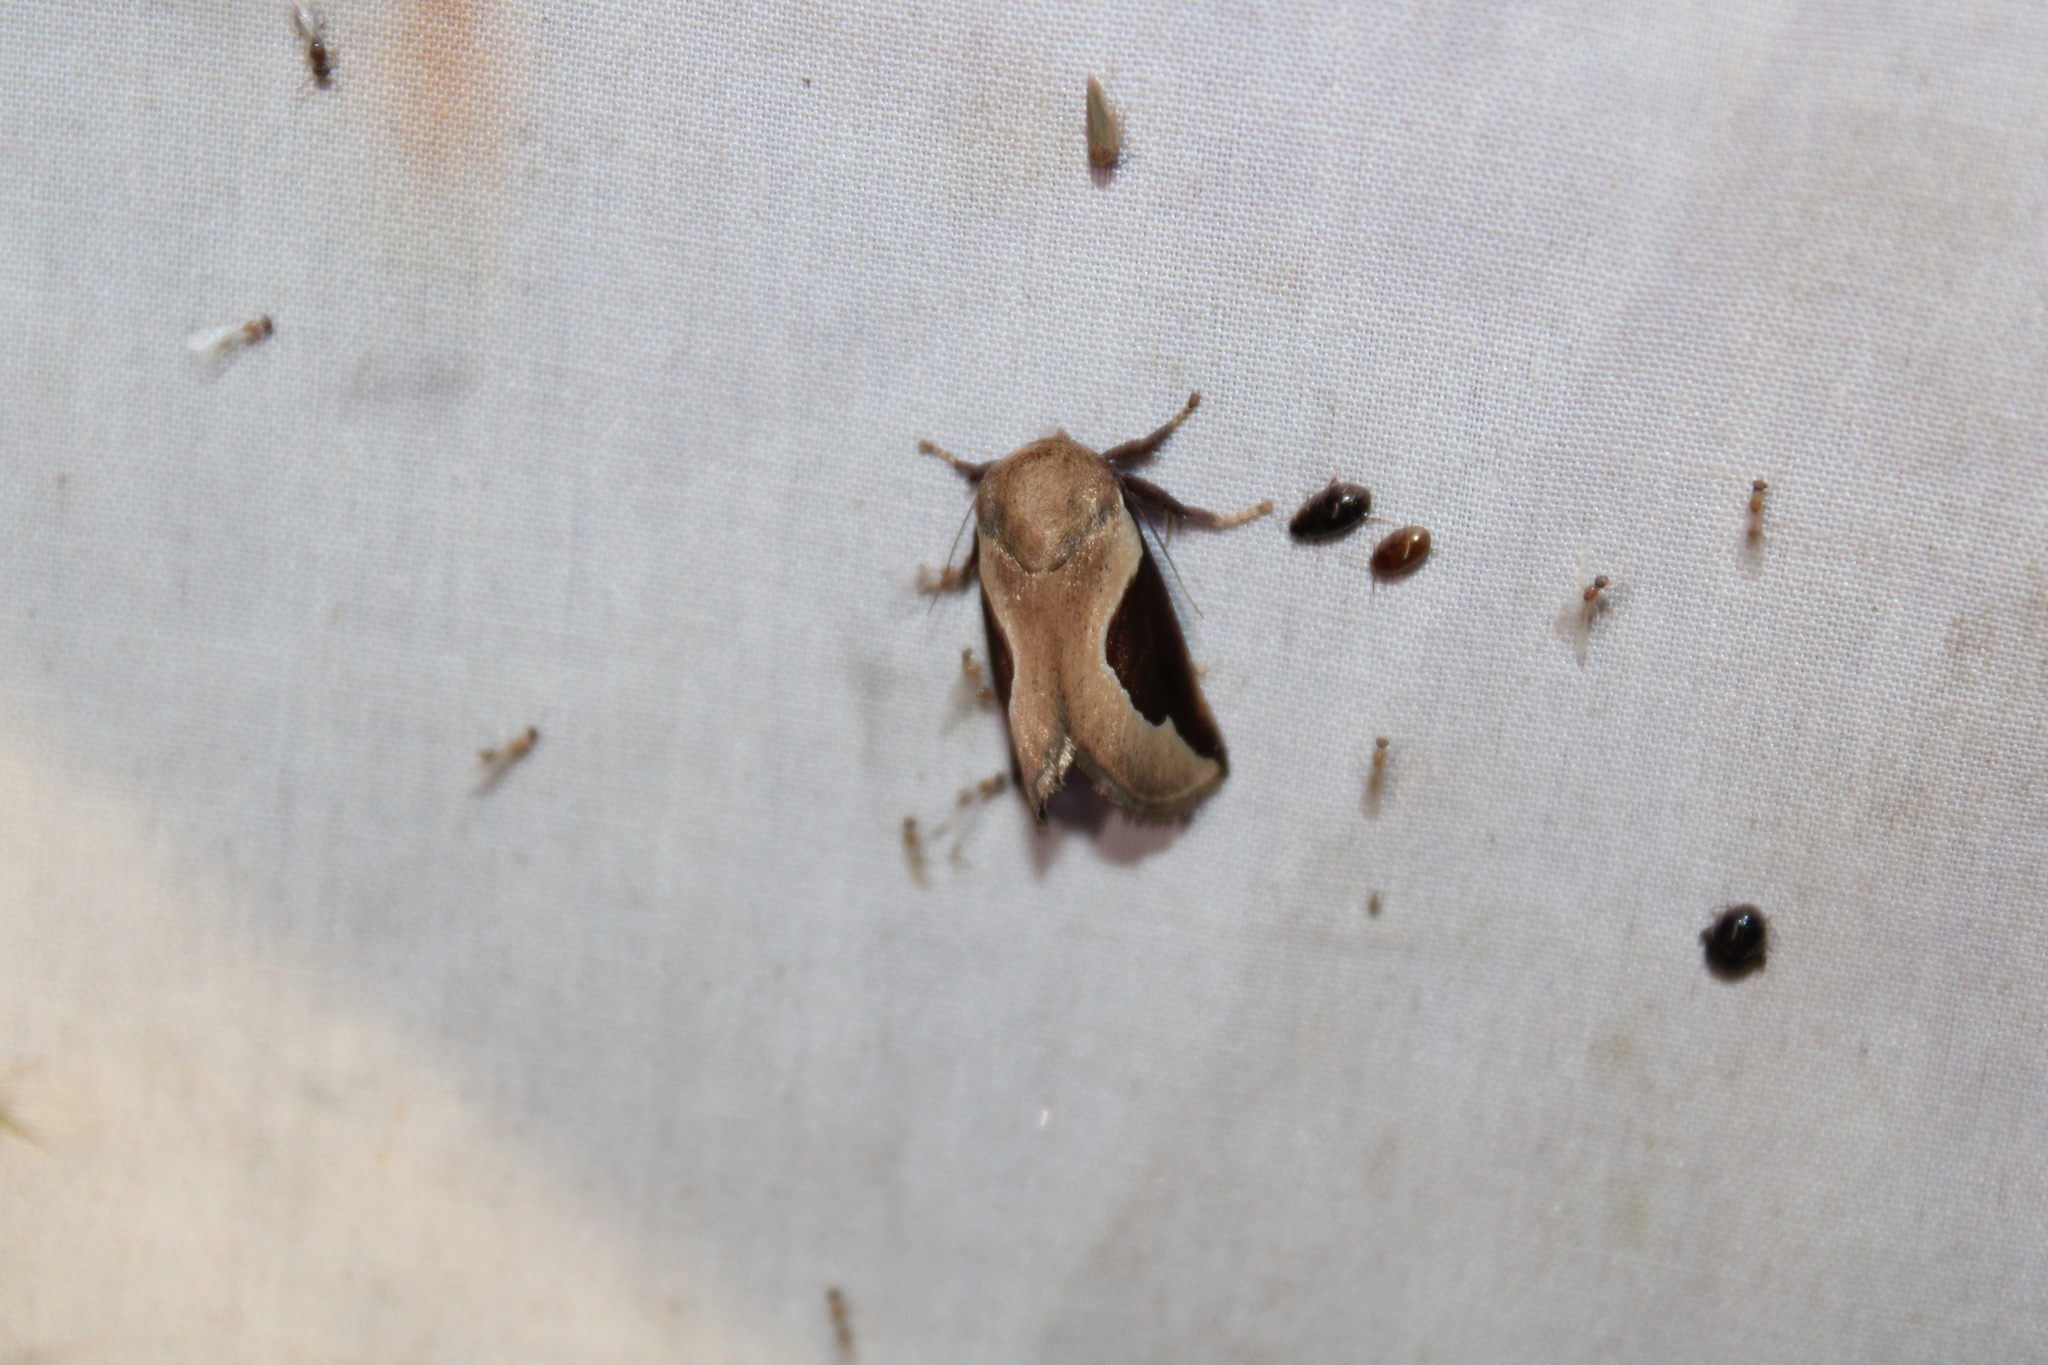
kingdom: Animalia
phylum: Arthropoda
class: Insecta
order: Lepidoptera
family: Limacodidae
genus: Prolimacodes
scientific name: Prolimacodes badia
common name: Skiff moth
